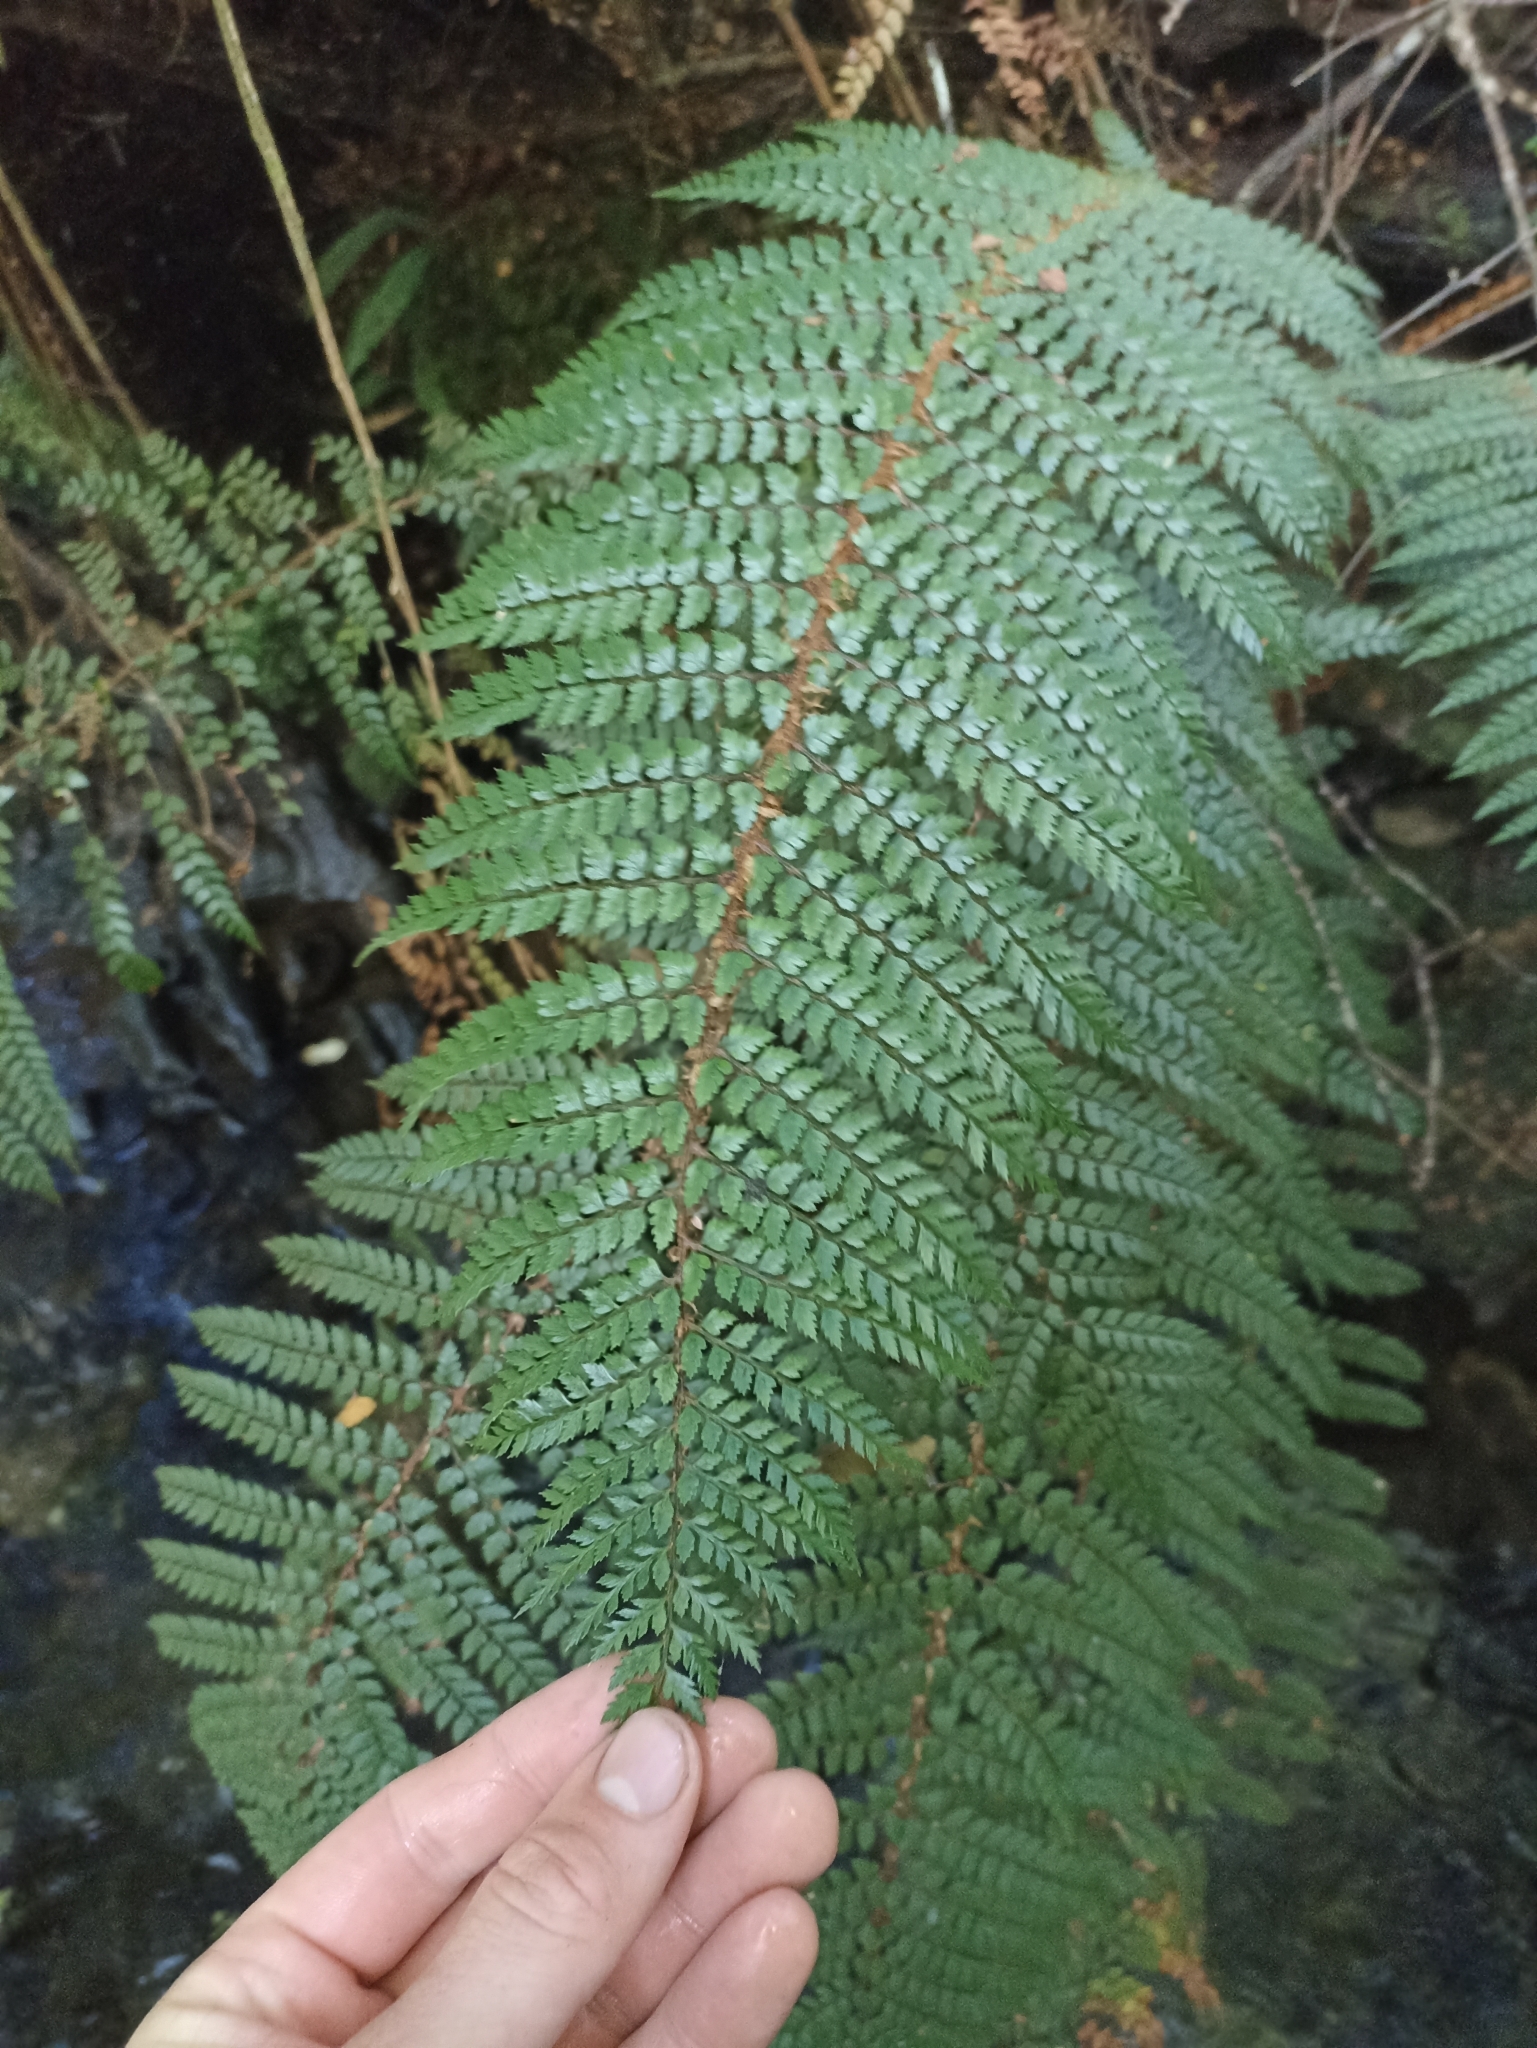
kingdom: Plantae
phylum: Tracheophyta
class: Polypodiopsida
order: Polypodiales
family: Dryopteridaceae
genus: Polystichum
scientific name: Polystichum vestitum
